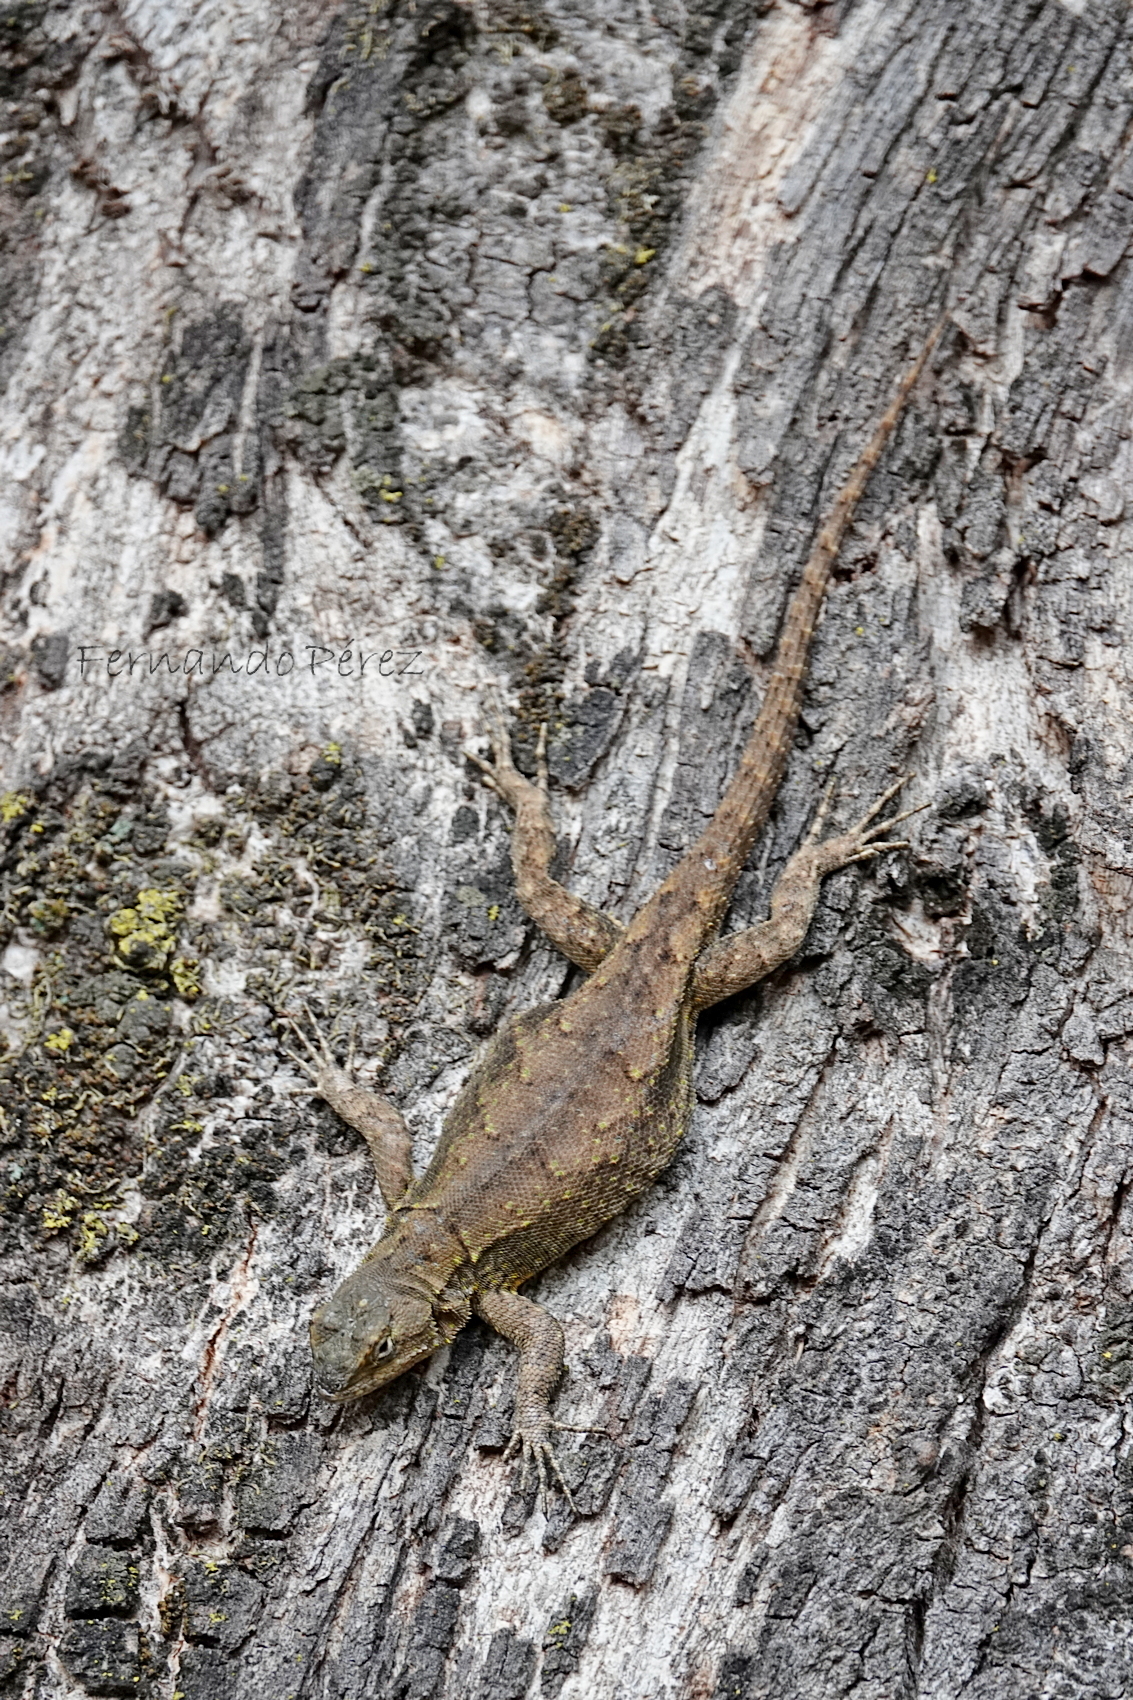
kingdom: Animalia
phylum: Chordata
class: Squamata
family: Phrynosomatidae
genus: Sceloporus
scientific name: Sceloporus grammicus
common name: Mesquite lizard
